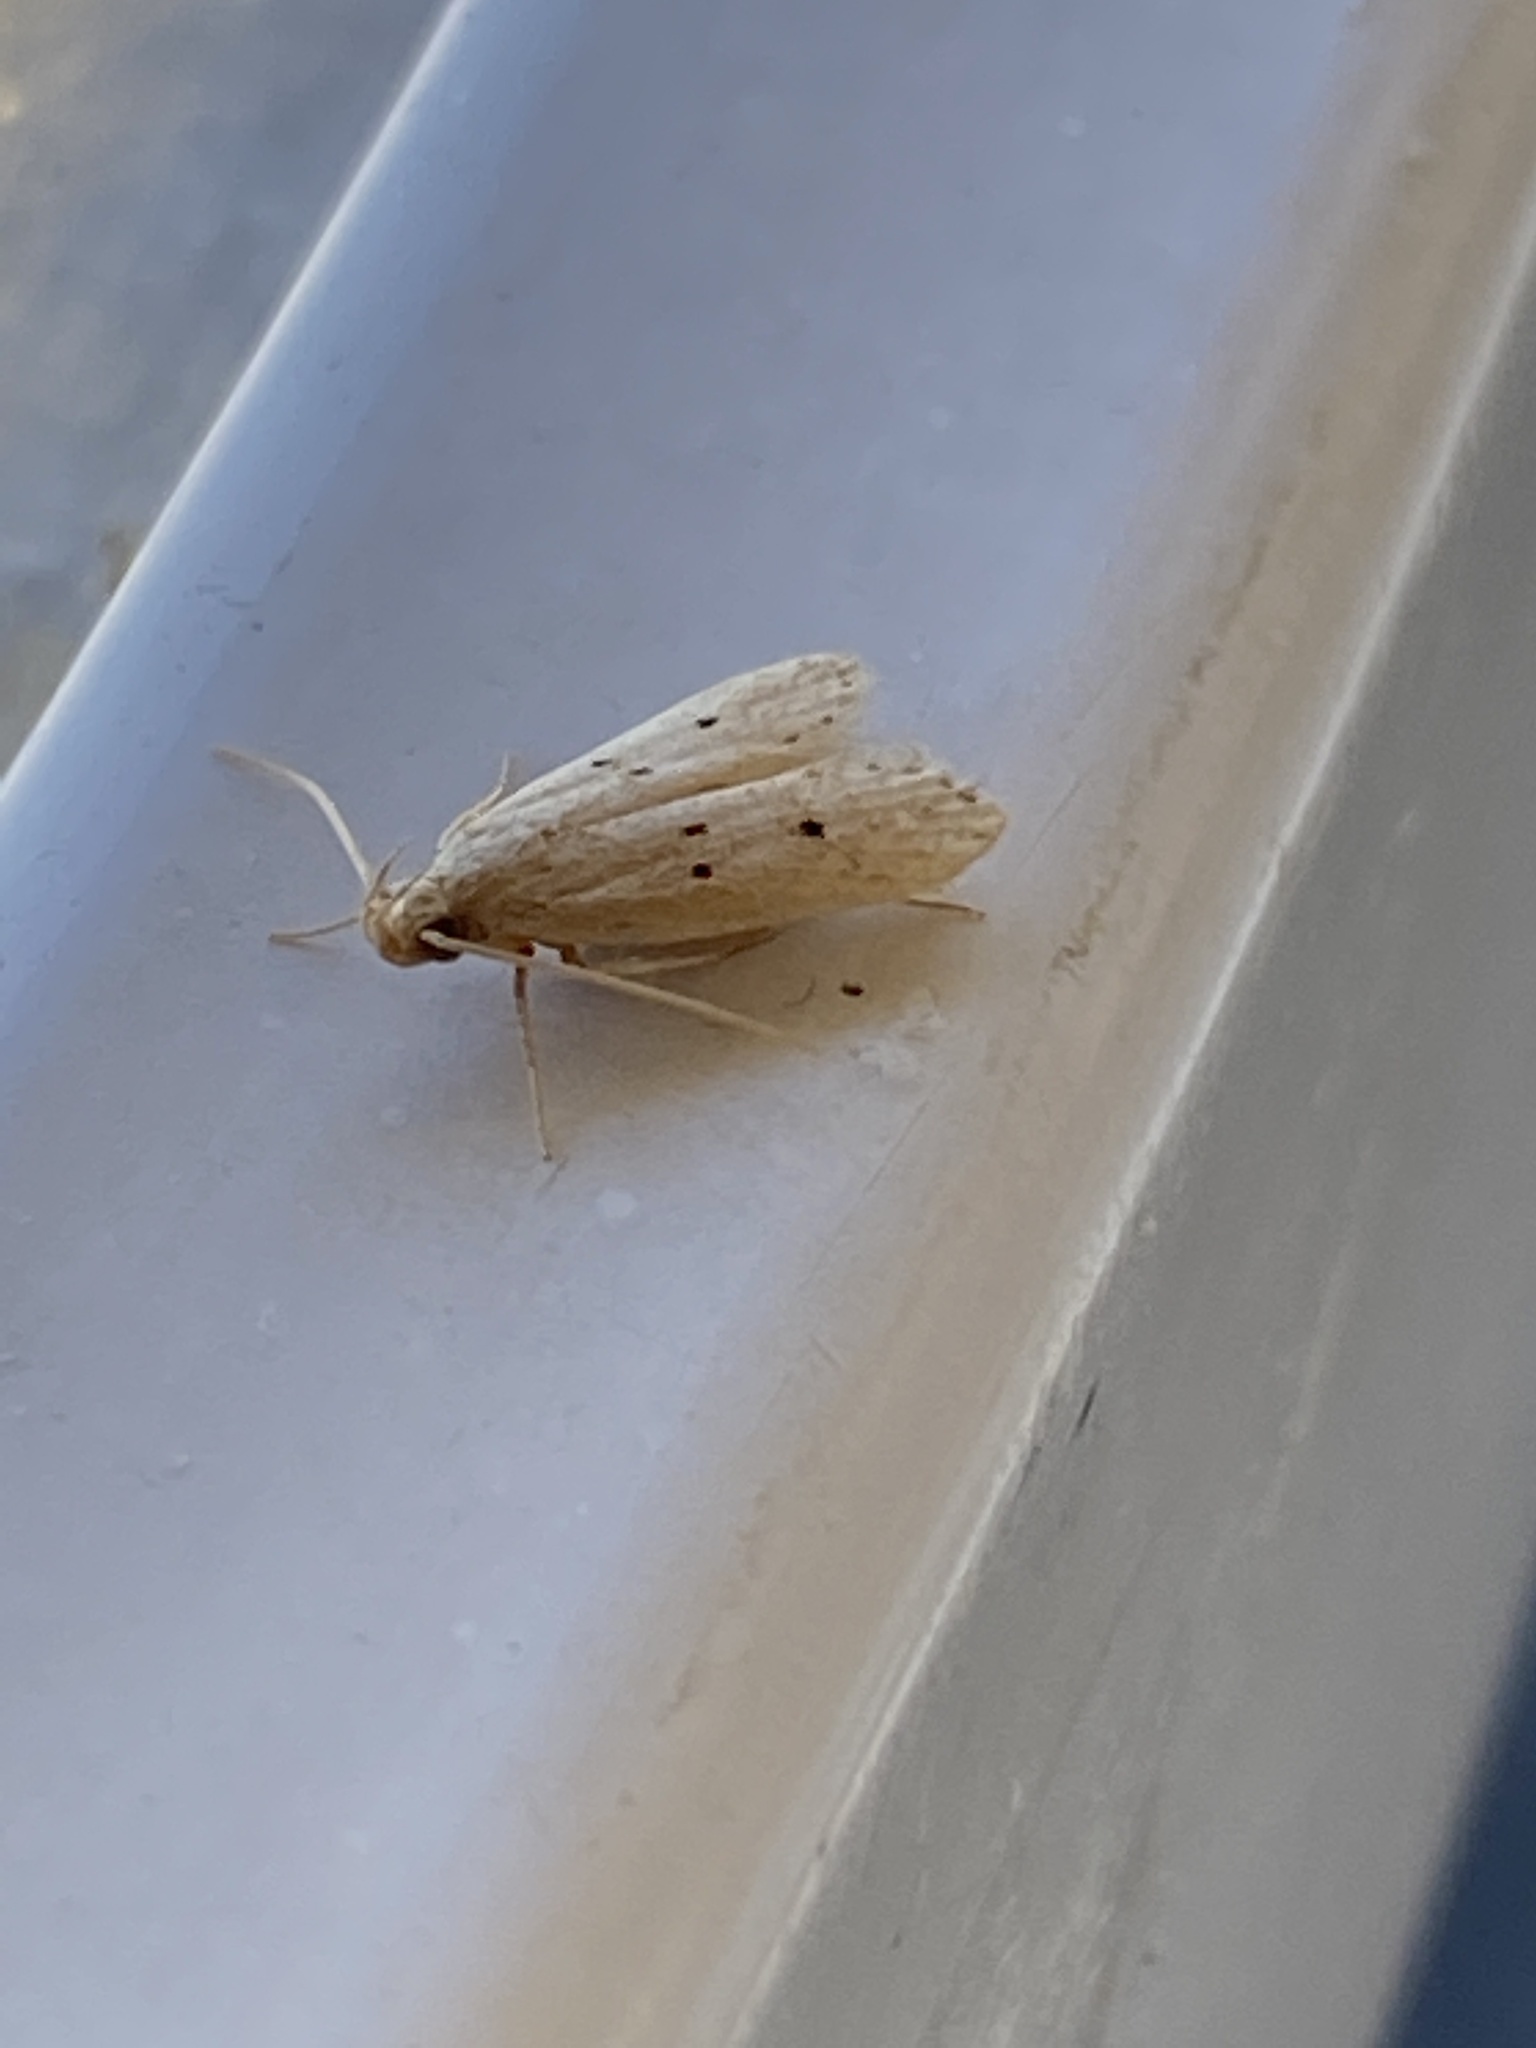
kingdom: Animalia
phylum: Arthropoda
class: Insecta
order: Lepidoptera
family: Autostichidae
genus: Autosticha
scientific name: Autosticha pelodes
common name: Moth
